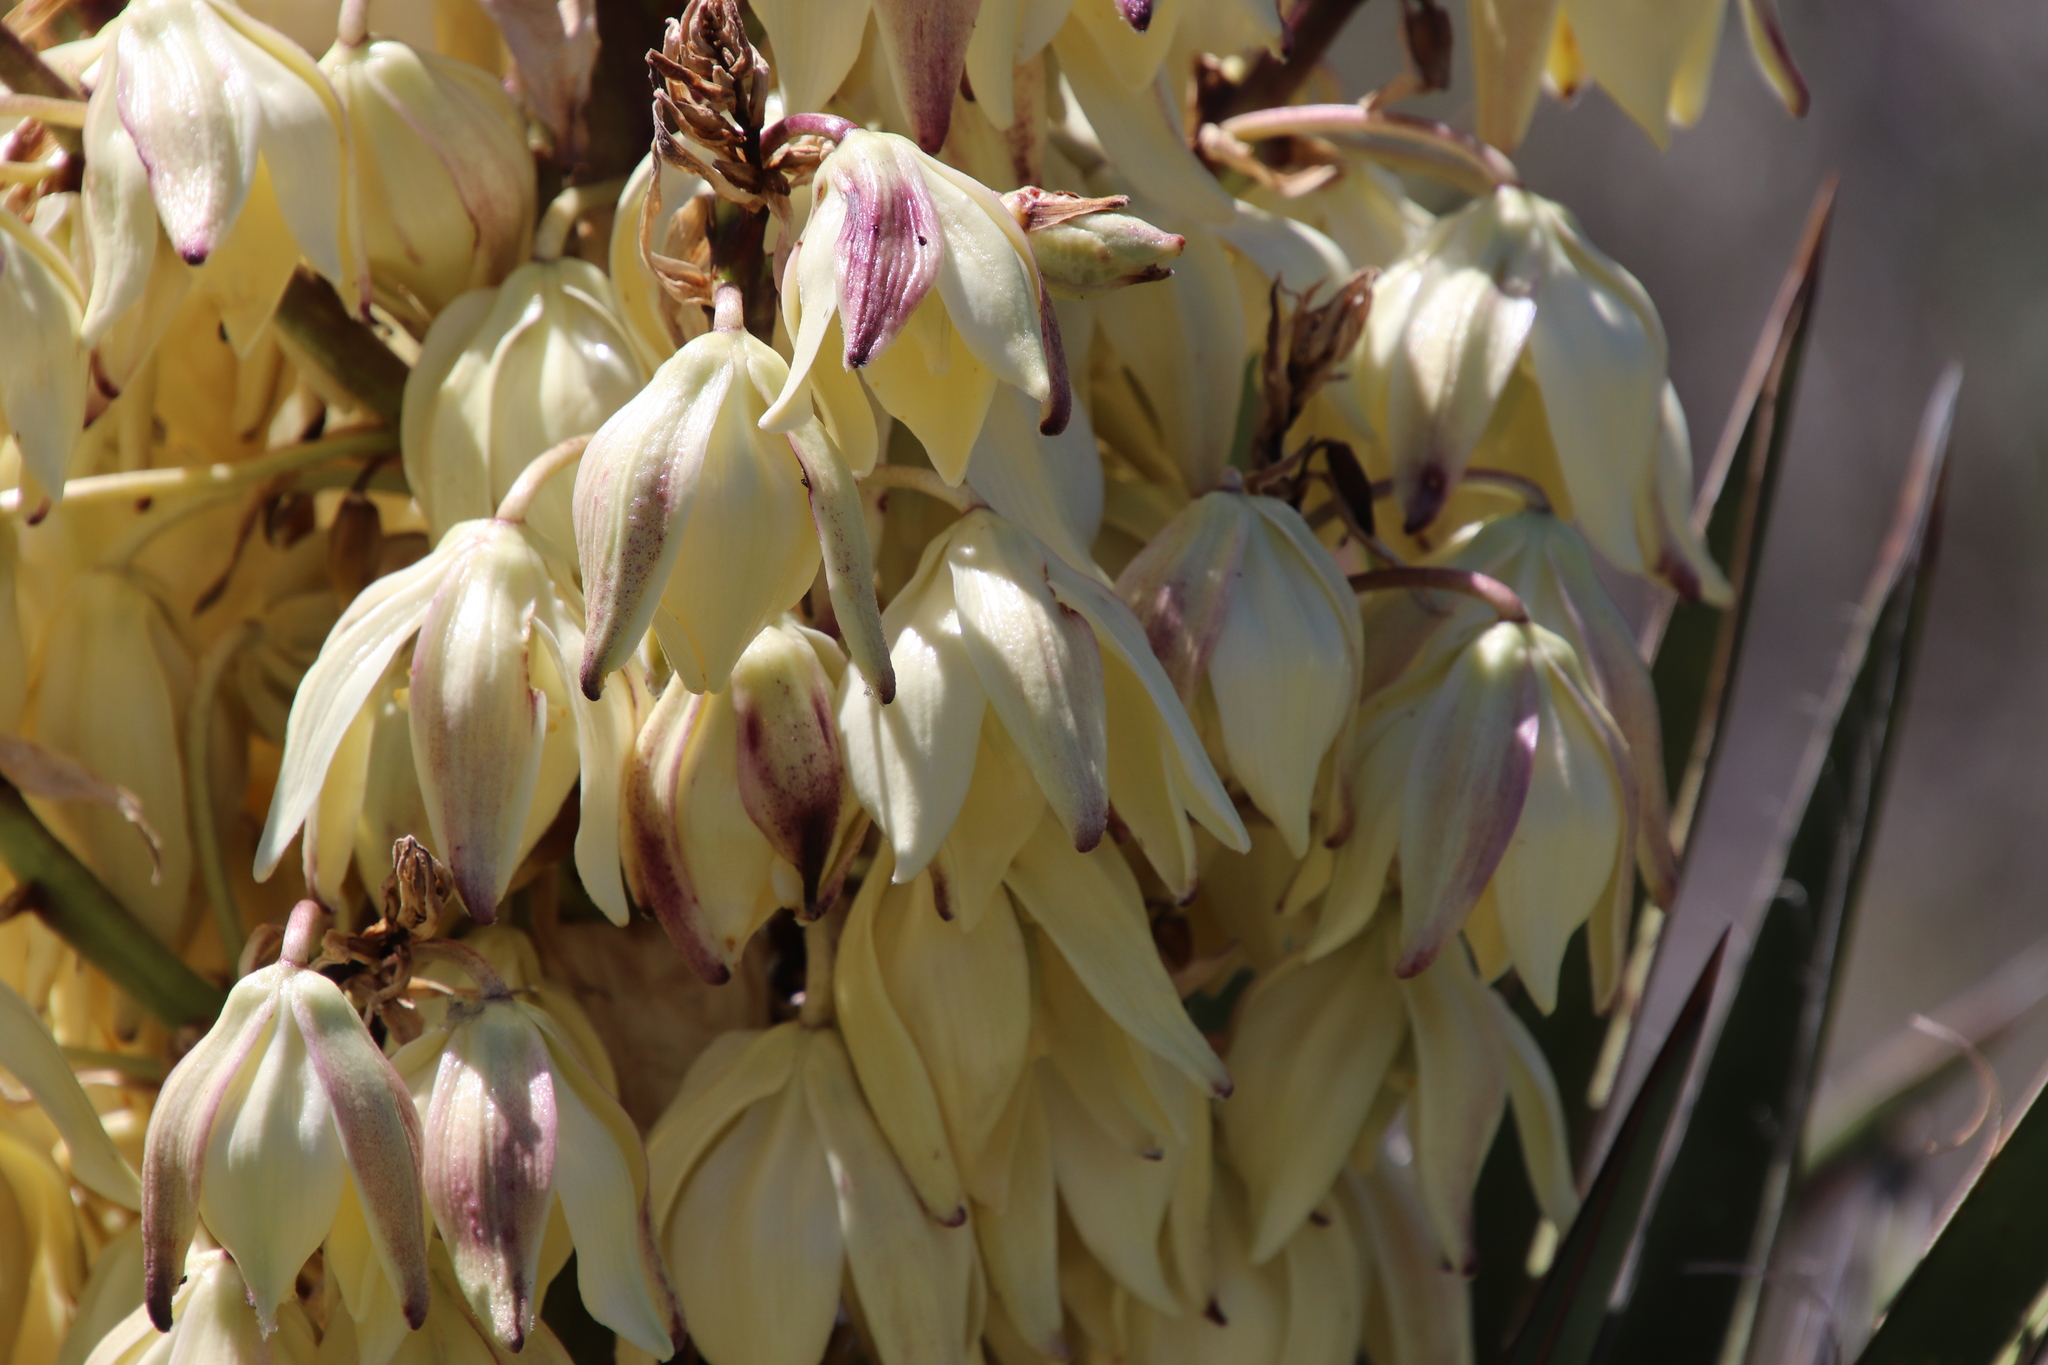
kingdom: Plantae
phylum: Tracheophyta
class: Liliopsida
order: Asparagales
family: Asparagaceae
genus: Yucca
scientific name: Yucca schidigera
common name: Mojave yucca
